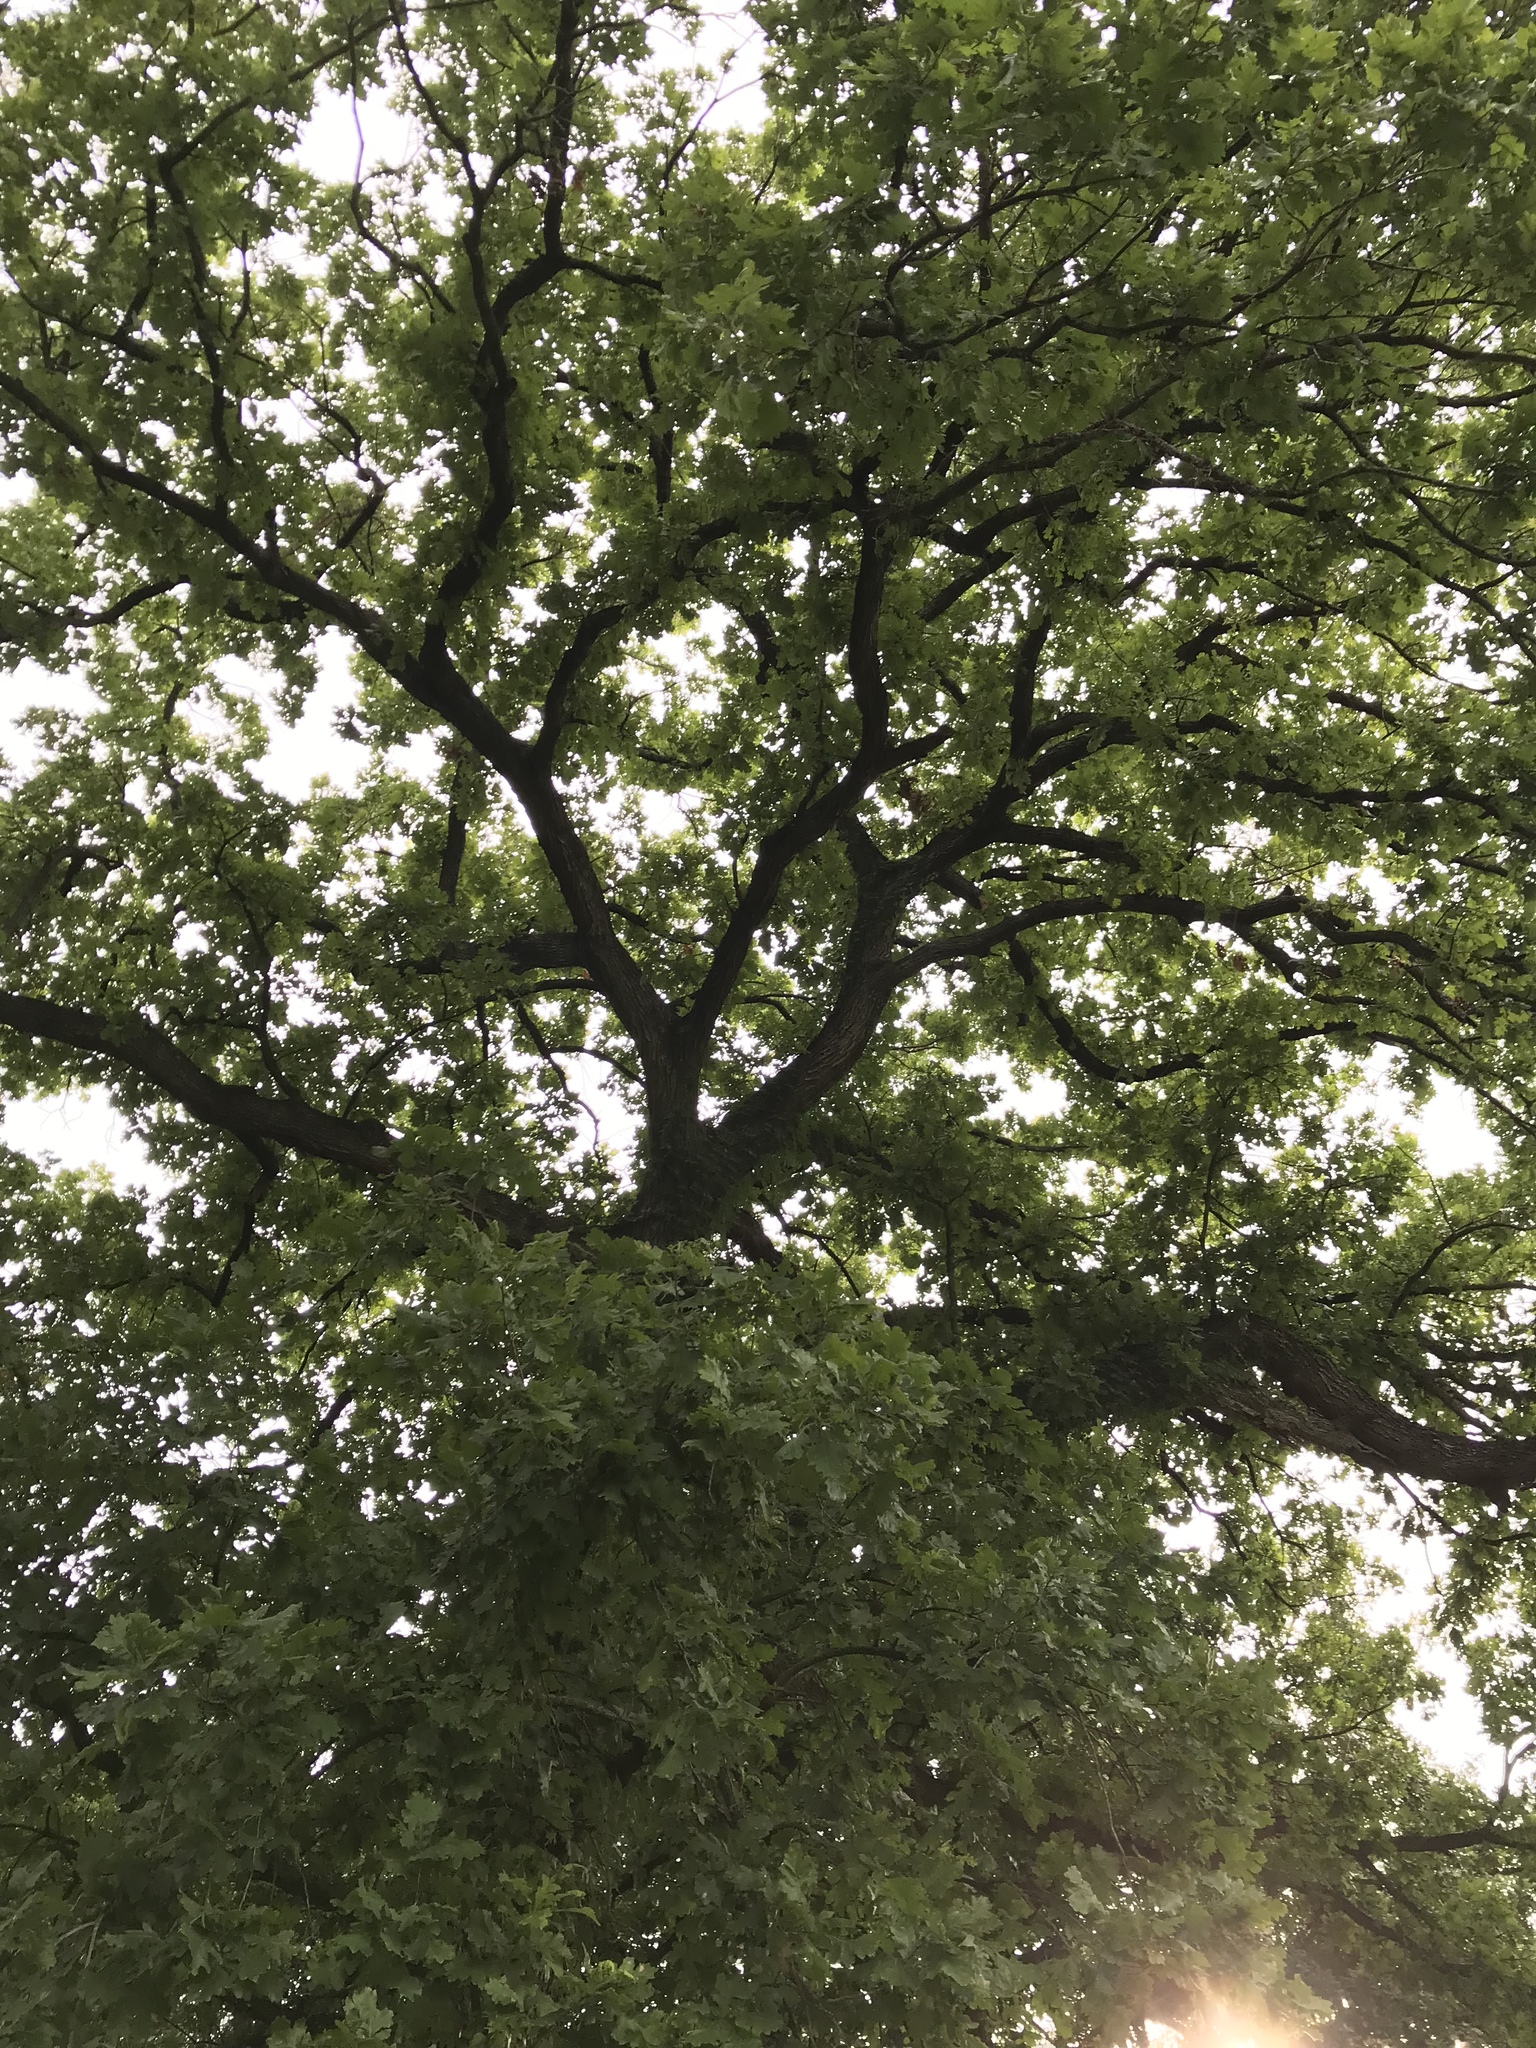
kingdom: Plantae
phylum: Tracheophyta
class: Magnoliopsida
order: Fagales
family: Fagaceae
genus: Quercus
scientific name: Quercus macrocarpa
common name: Bur oak
